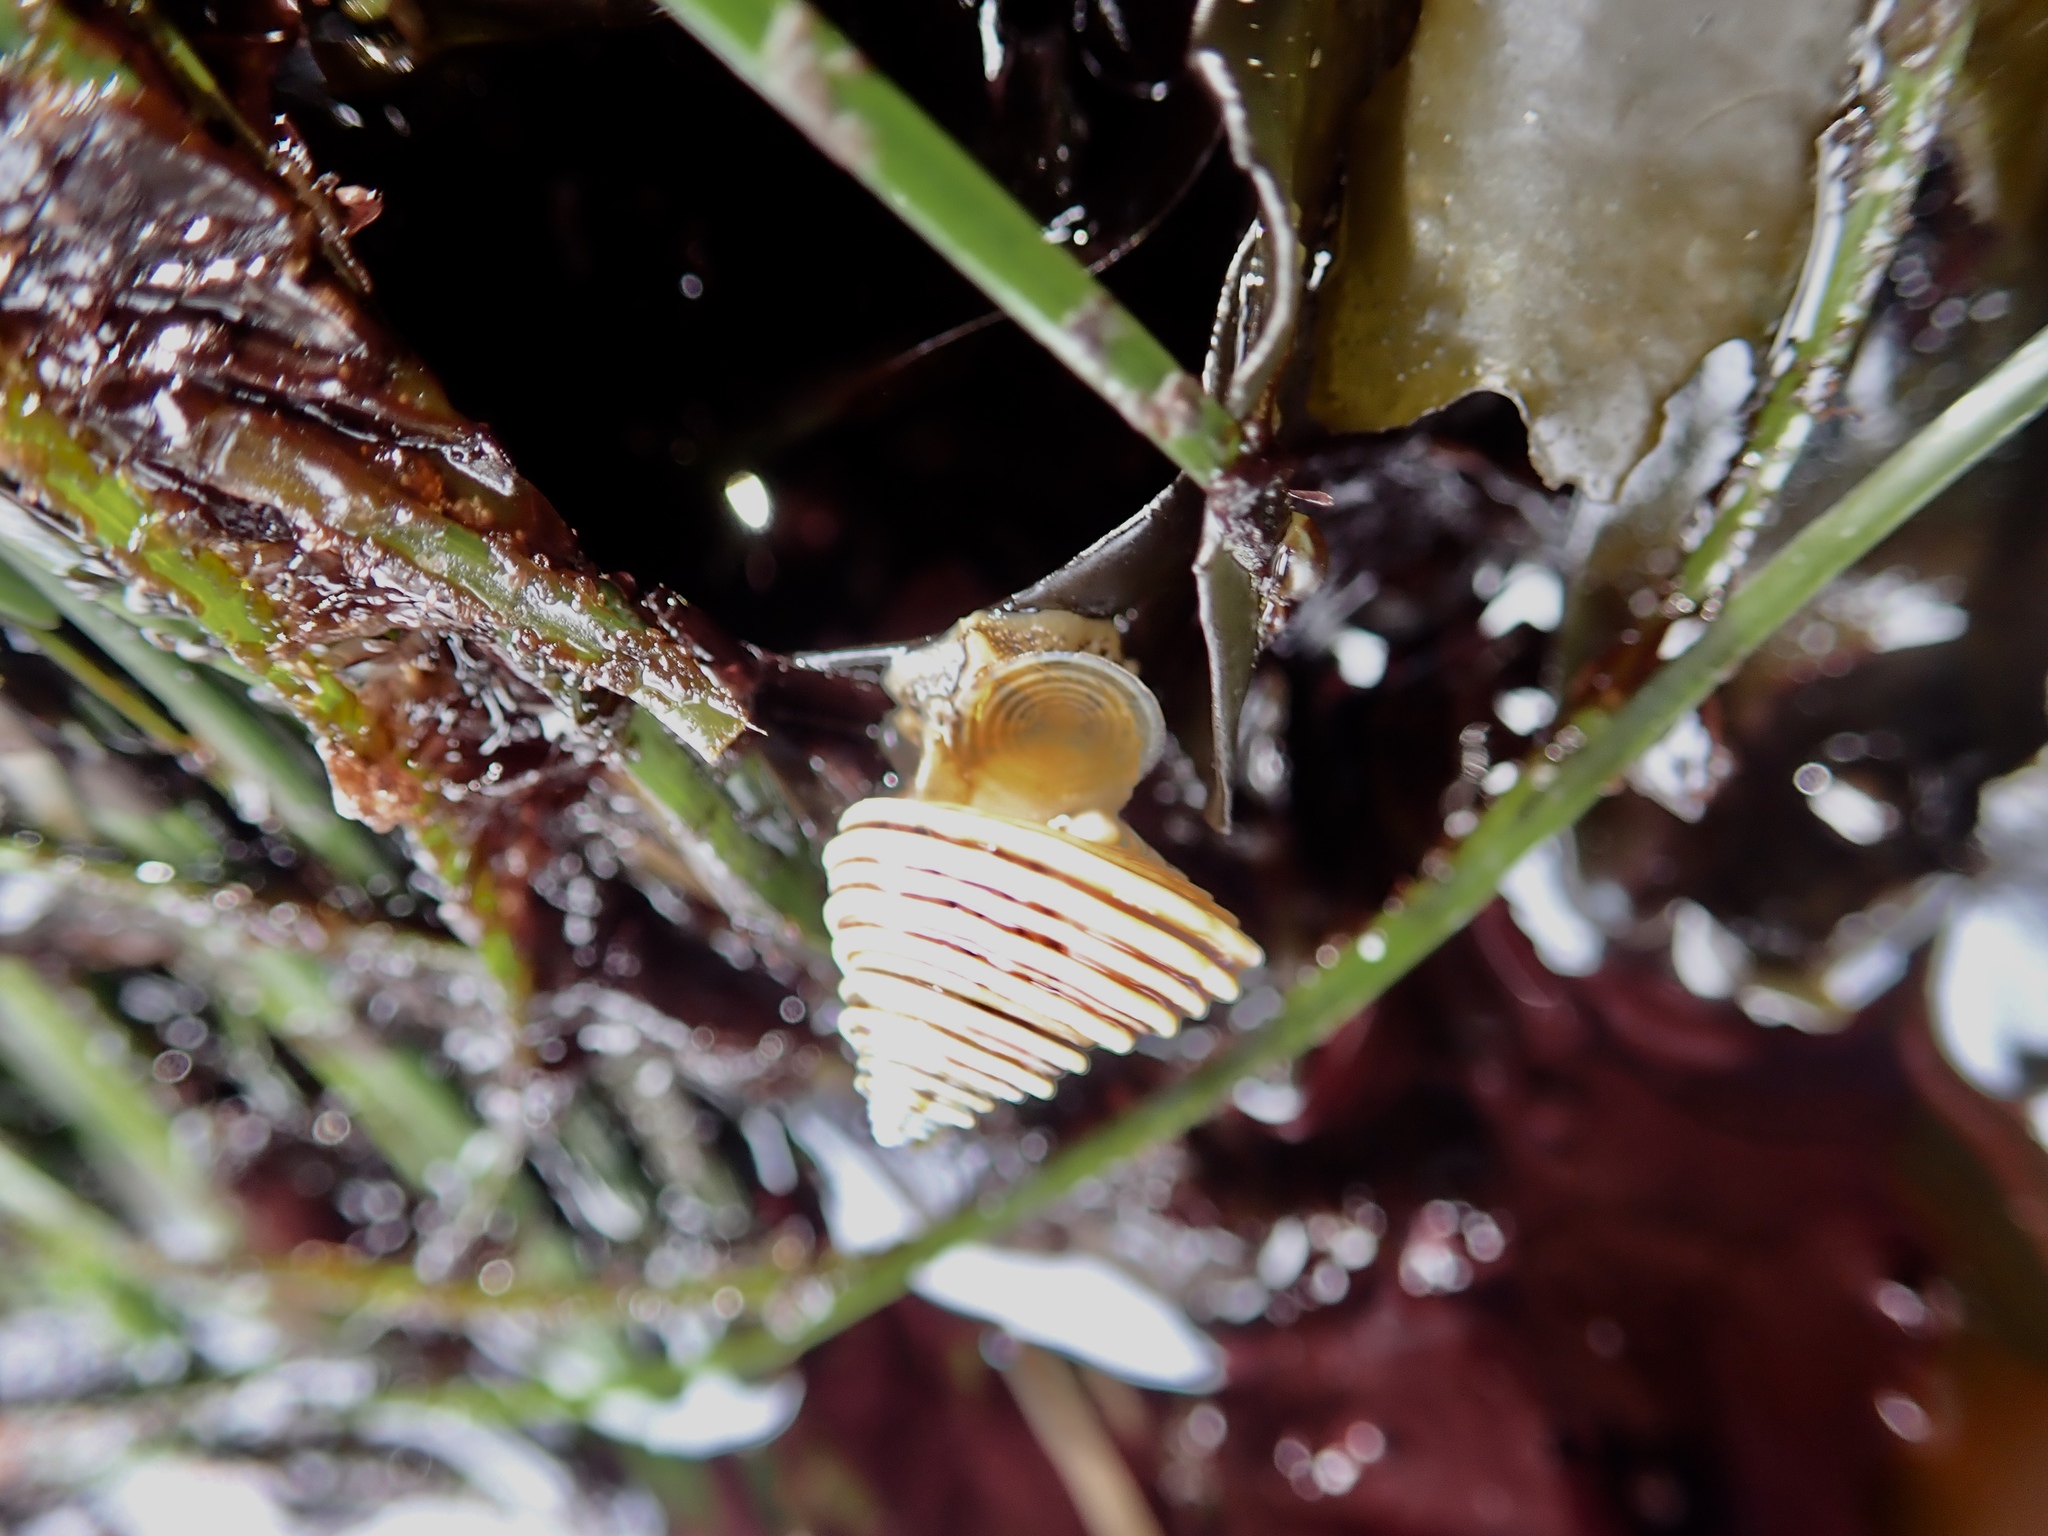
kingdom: Animalia
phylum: Mollusca
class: Gastropoda
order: Trochida
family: Calliostomatidae
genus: Calliostoma
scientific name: Calliostoma canaliculatum
